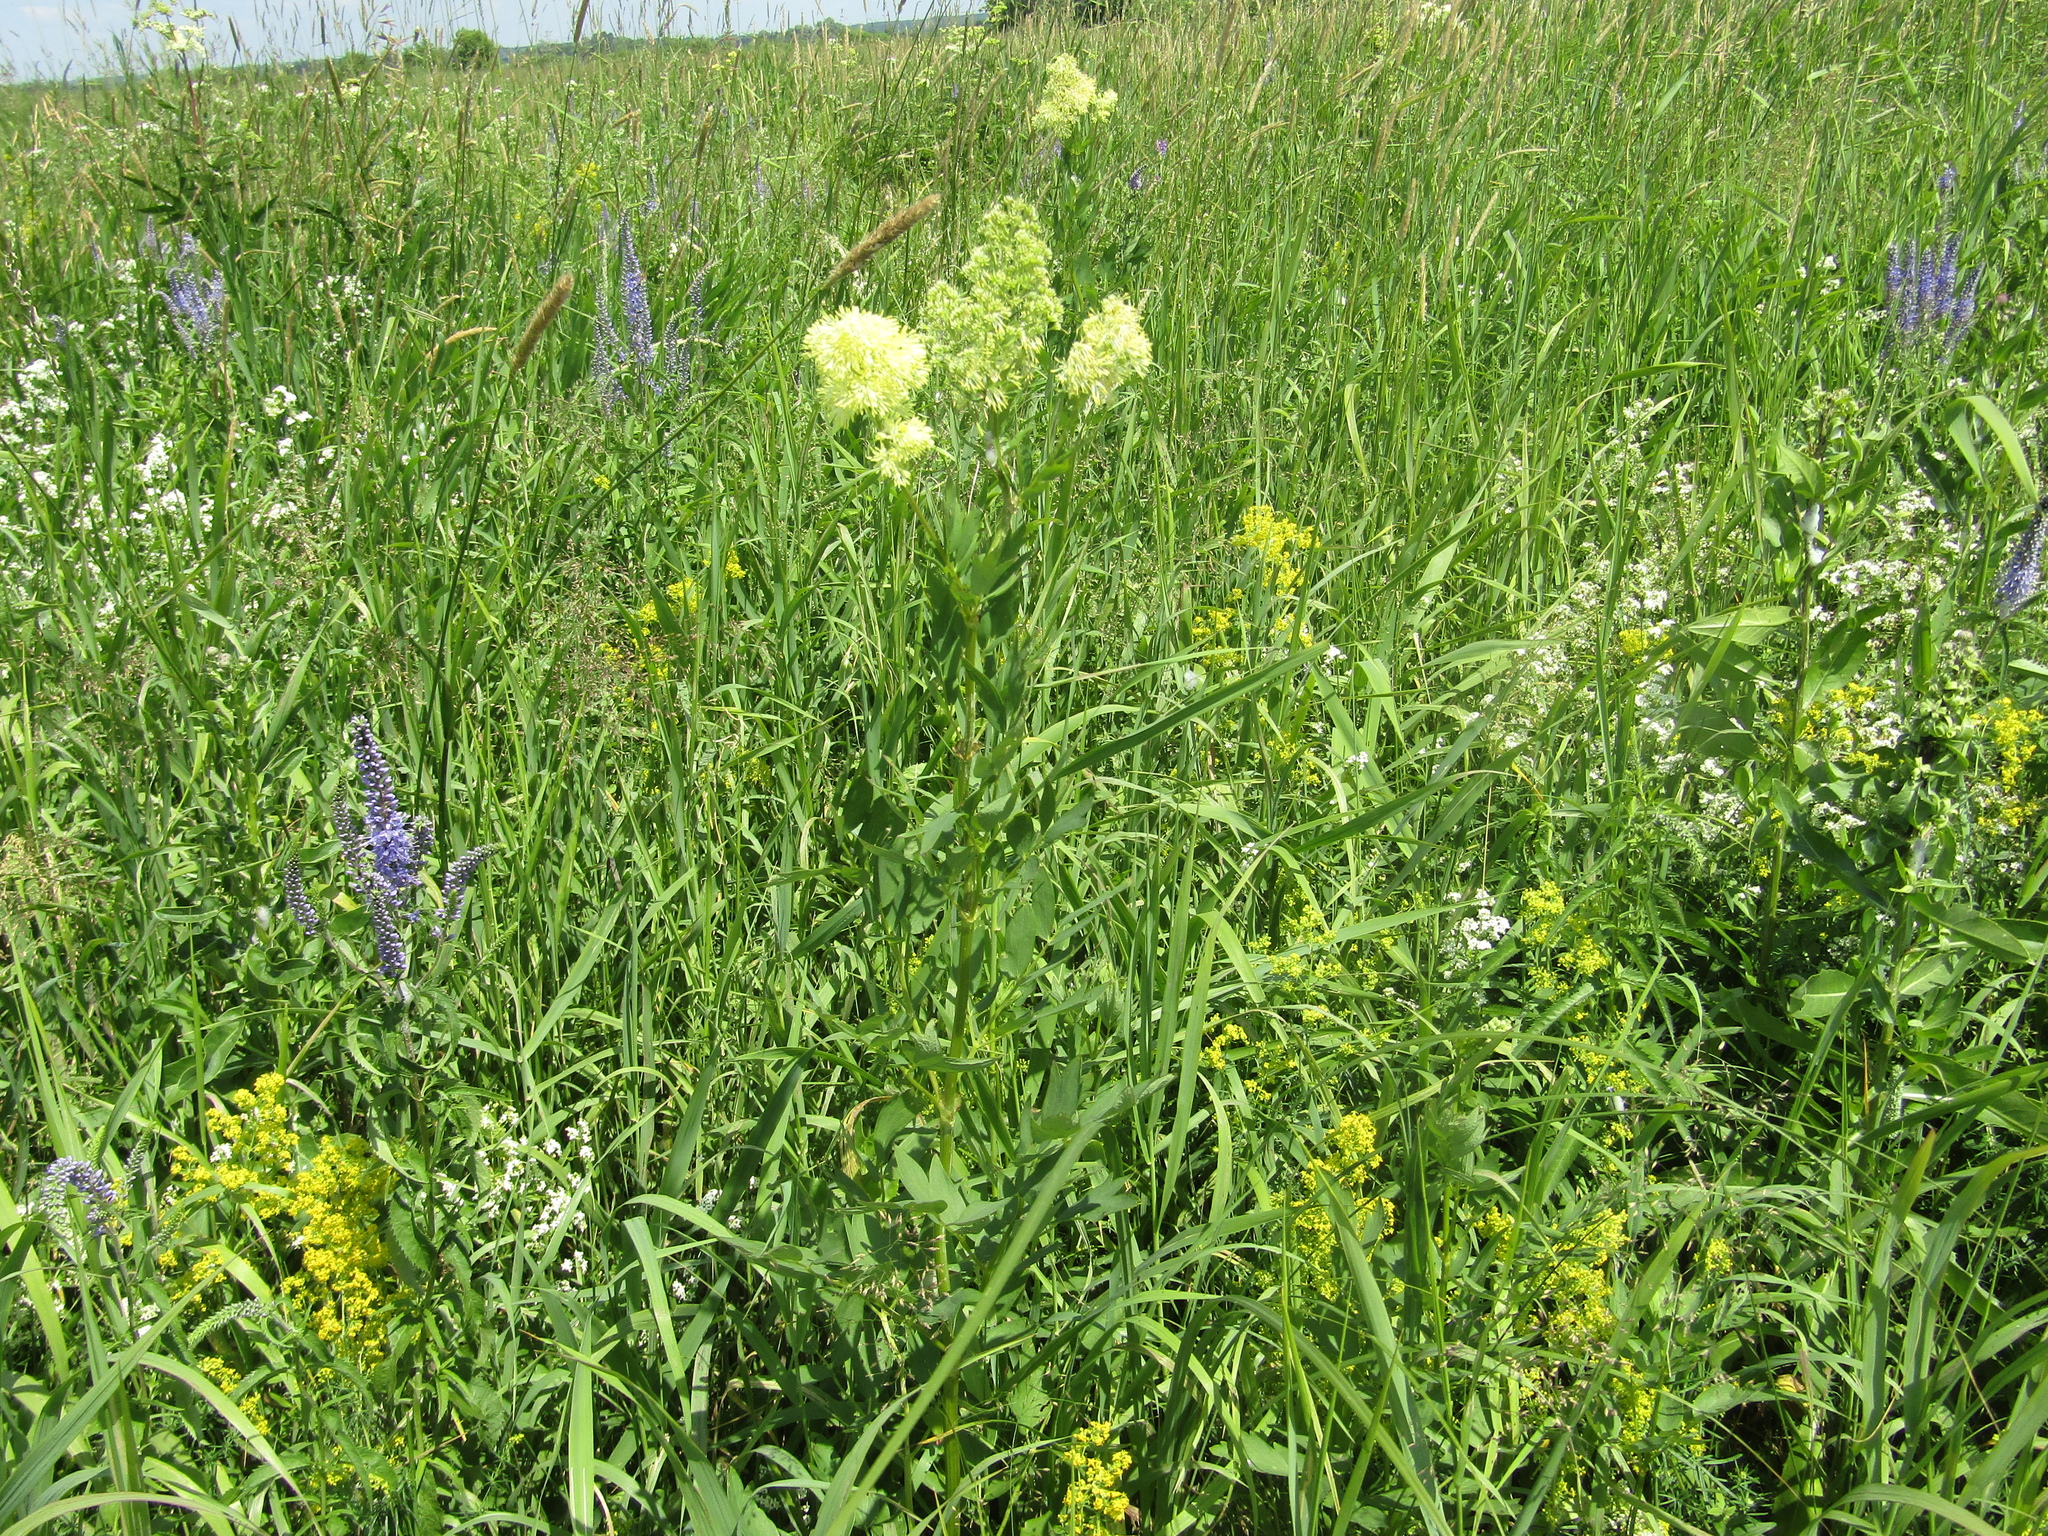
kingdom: Plantae
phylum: Tracheophyta
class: Magnoliopsida
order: Ranunculales
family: Ranunculaceae
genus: Thalictrum
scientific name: Thalictrum flavum
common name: Common meadow-rue
